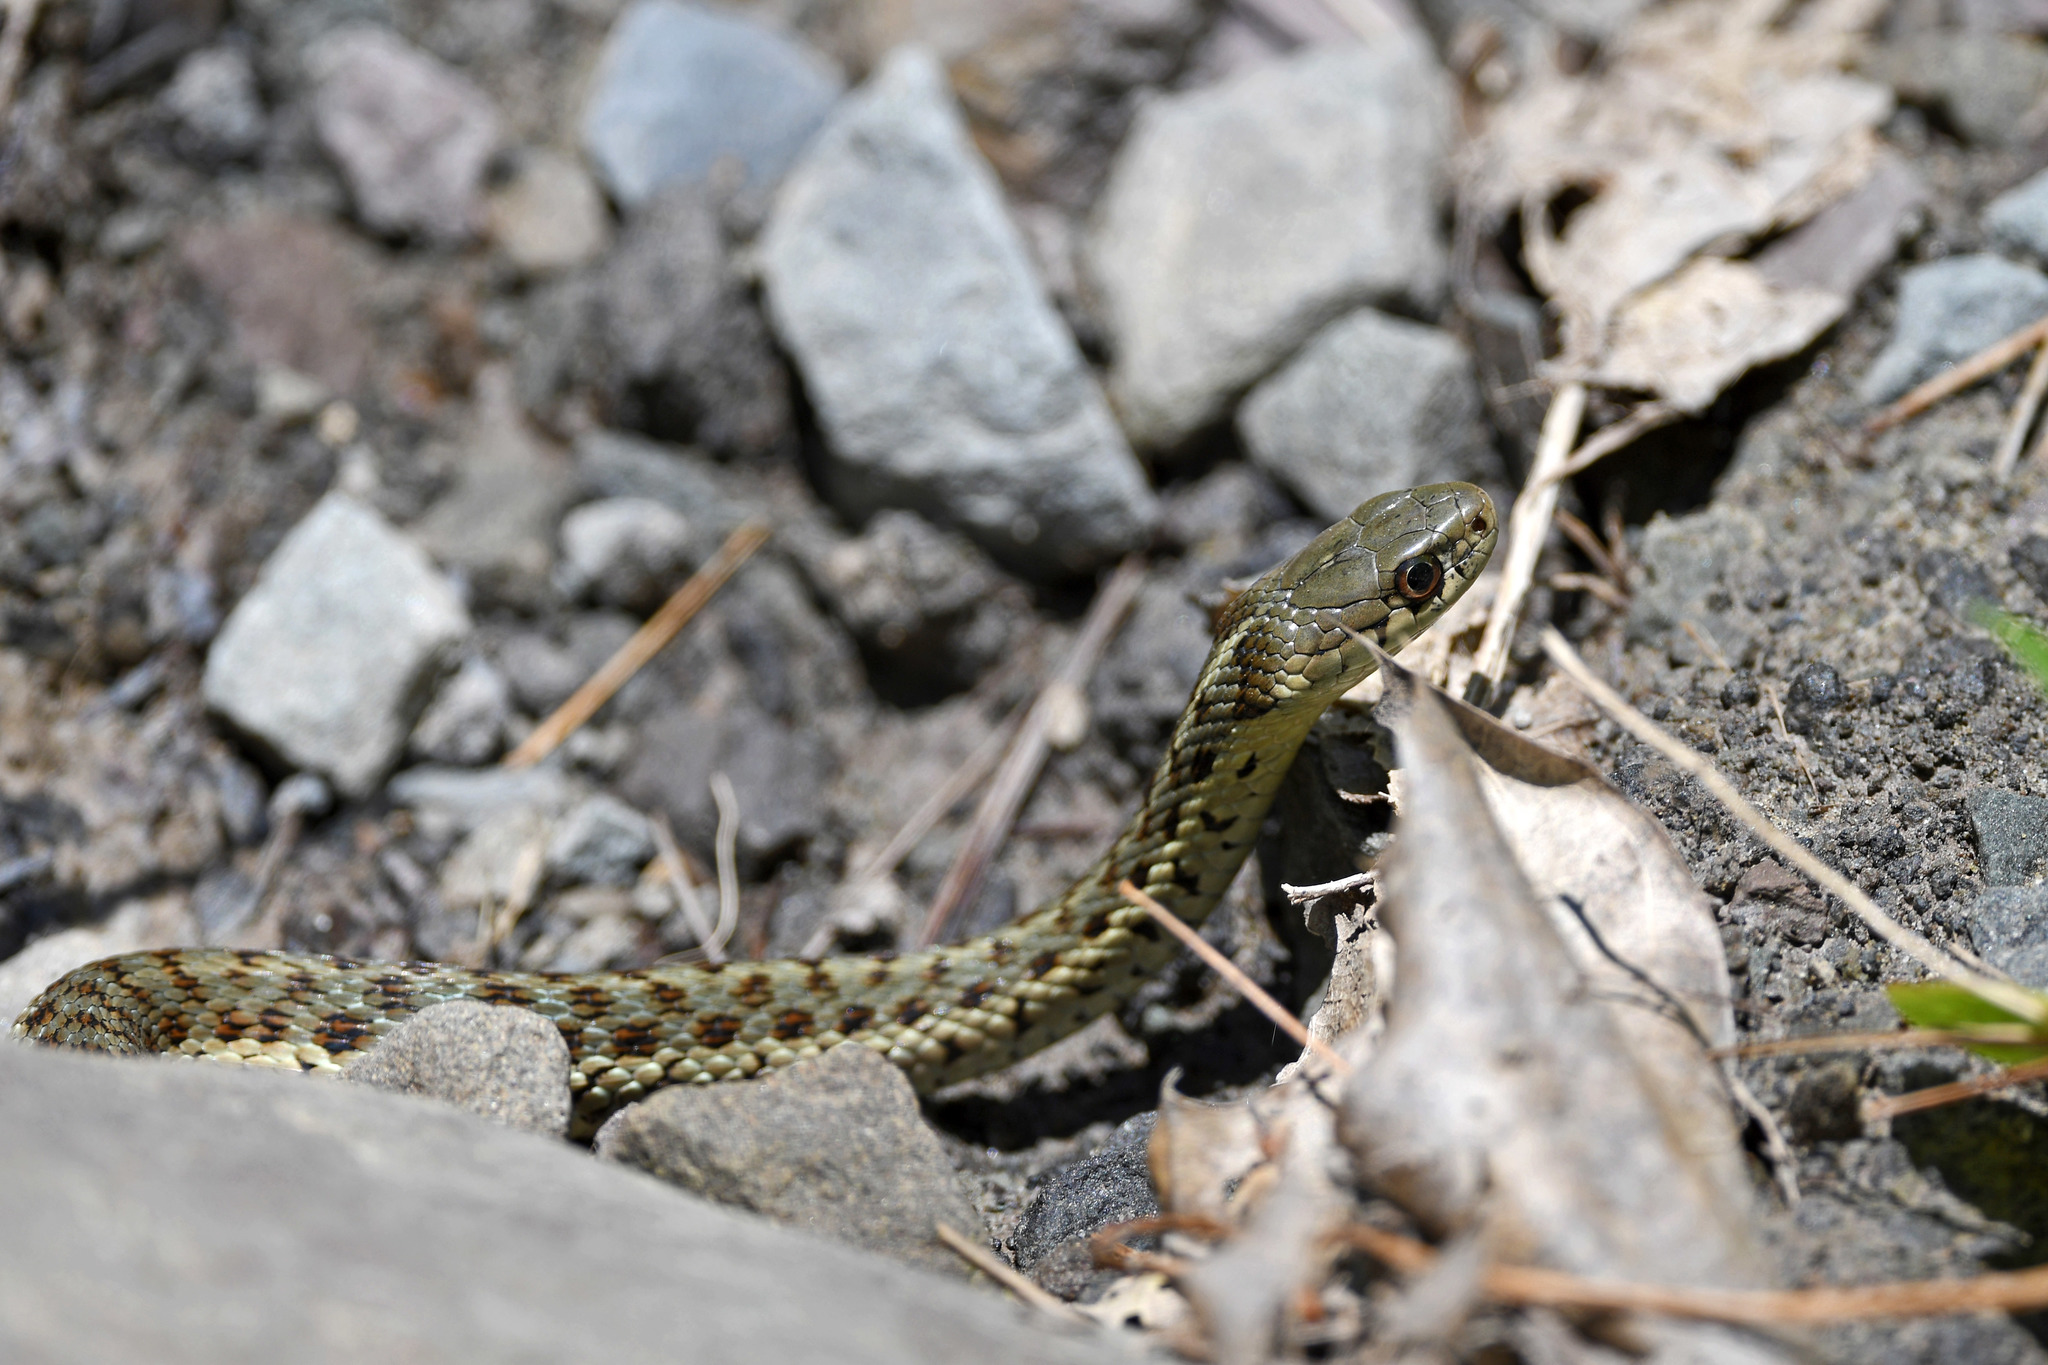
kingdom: Animalia
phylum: Chordata
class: Squamata
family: Colubridae
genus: Thamnophis
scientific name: Thamnophis sirtalis
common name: Common garter snake
